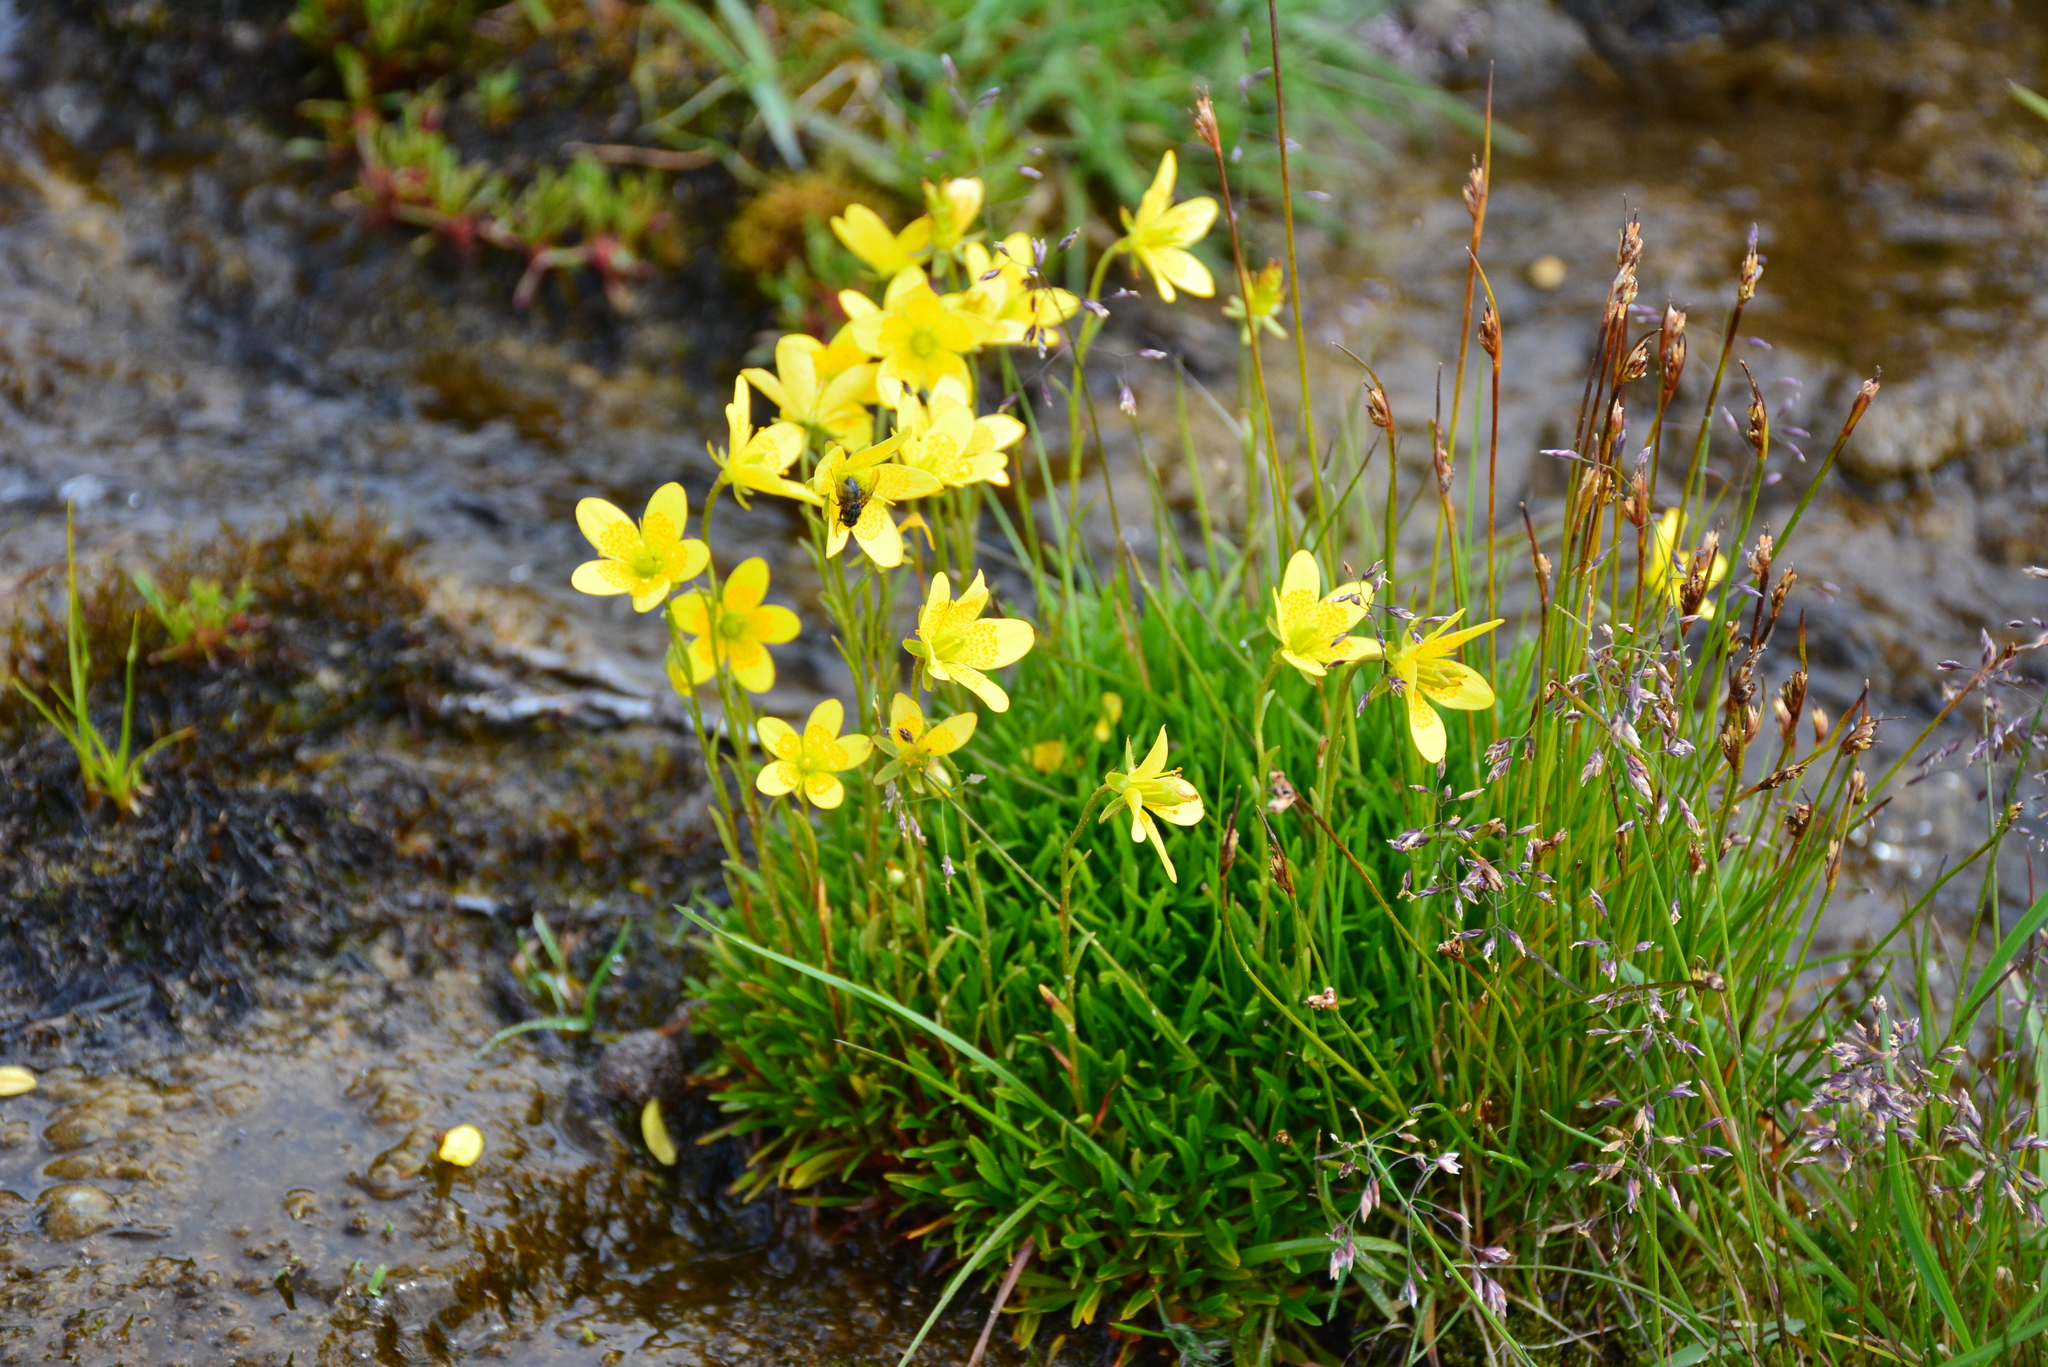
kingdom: Plantae
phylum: Tracheophyta
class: Magnoliopsida
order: Saxifragales
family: Saxifragaceae
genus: Saxifraga
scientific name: Saxifraga hirculus
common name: Yellow marsh saxifrage
